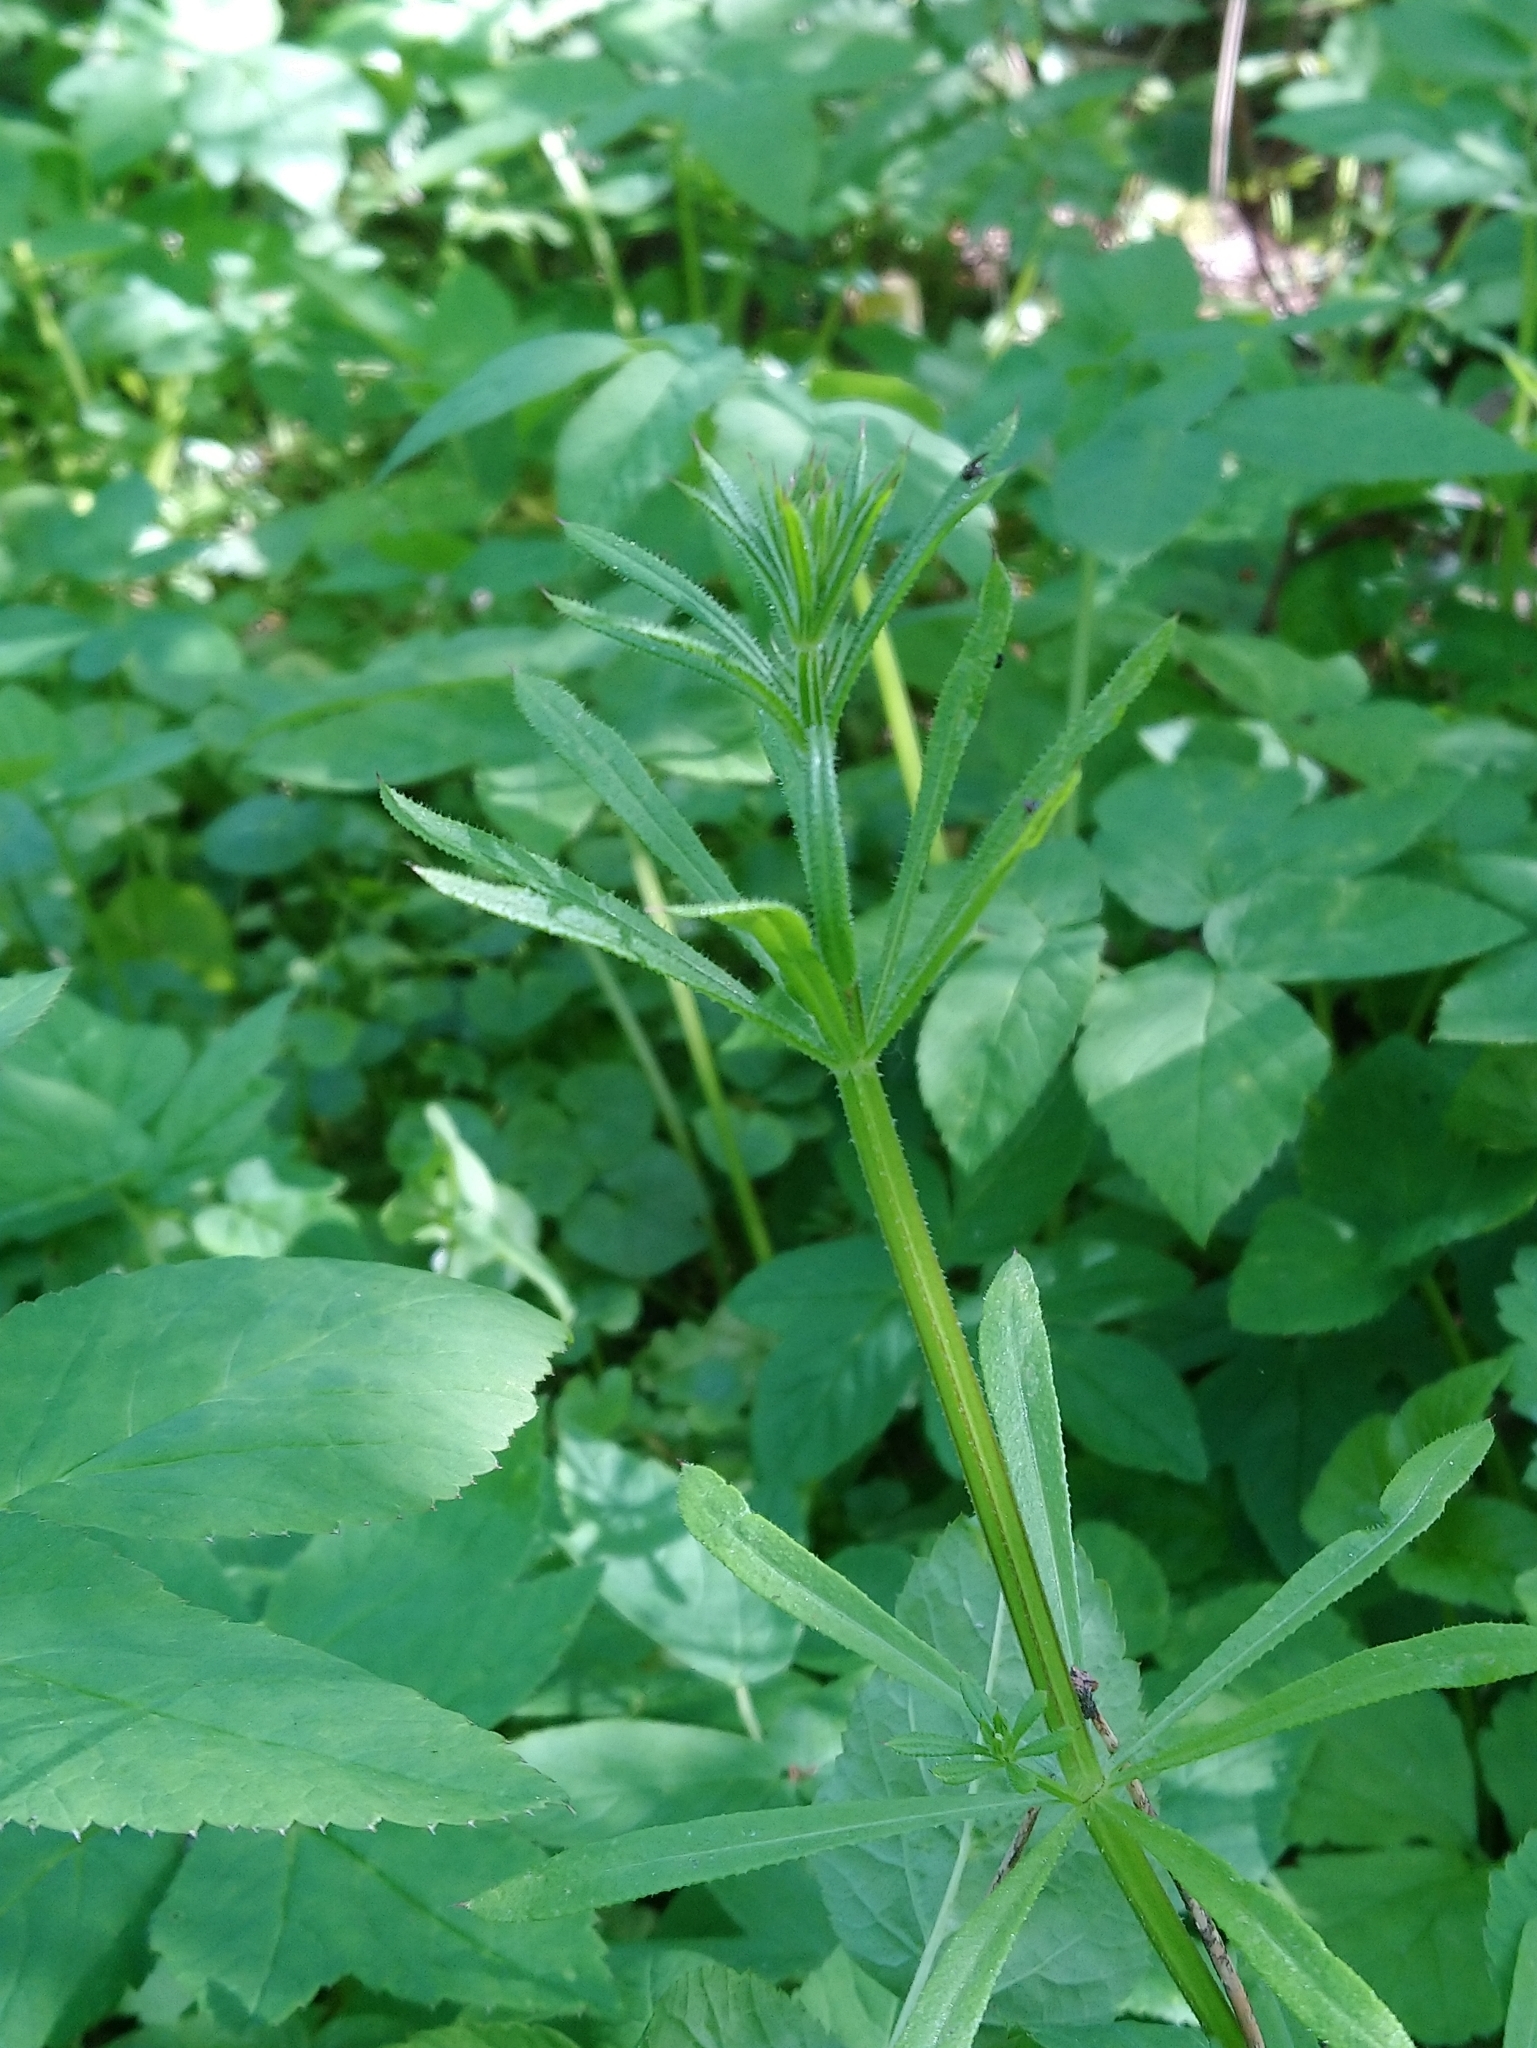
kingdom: Plantae
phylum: Tracheophyta
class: Magnoliopsida
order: Gentianales
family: Rubiaceae
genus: Galium
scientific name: Galium aparine
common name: Cleavers
